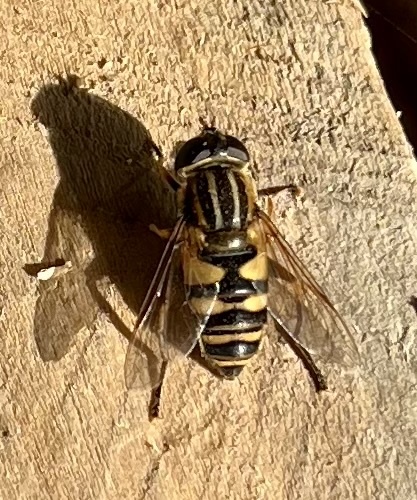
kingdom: Animalia
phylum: Arthropoda
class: Insecta
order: Diptera
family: Syrphidae
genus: Helophilus
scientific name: Helophilus fasciatus
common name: Narrow-headed marsh fly
